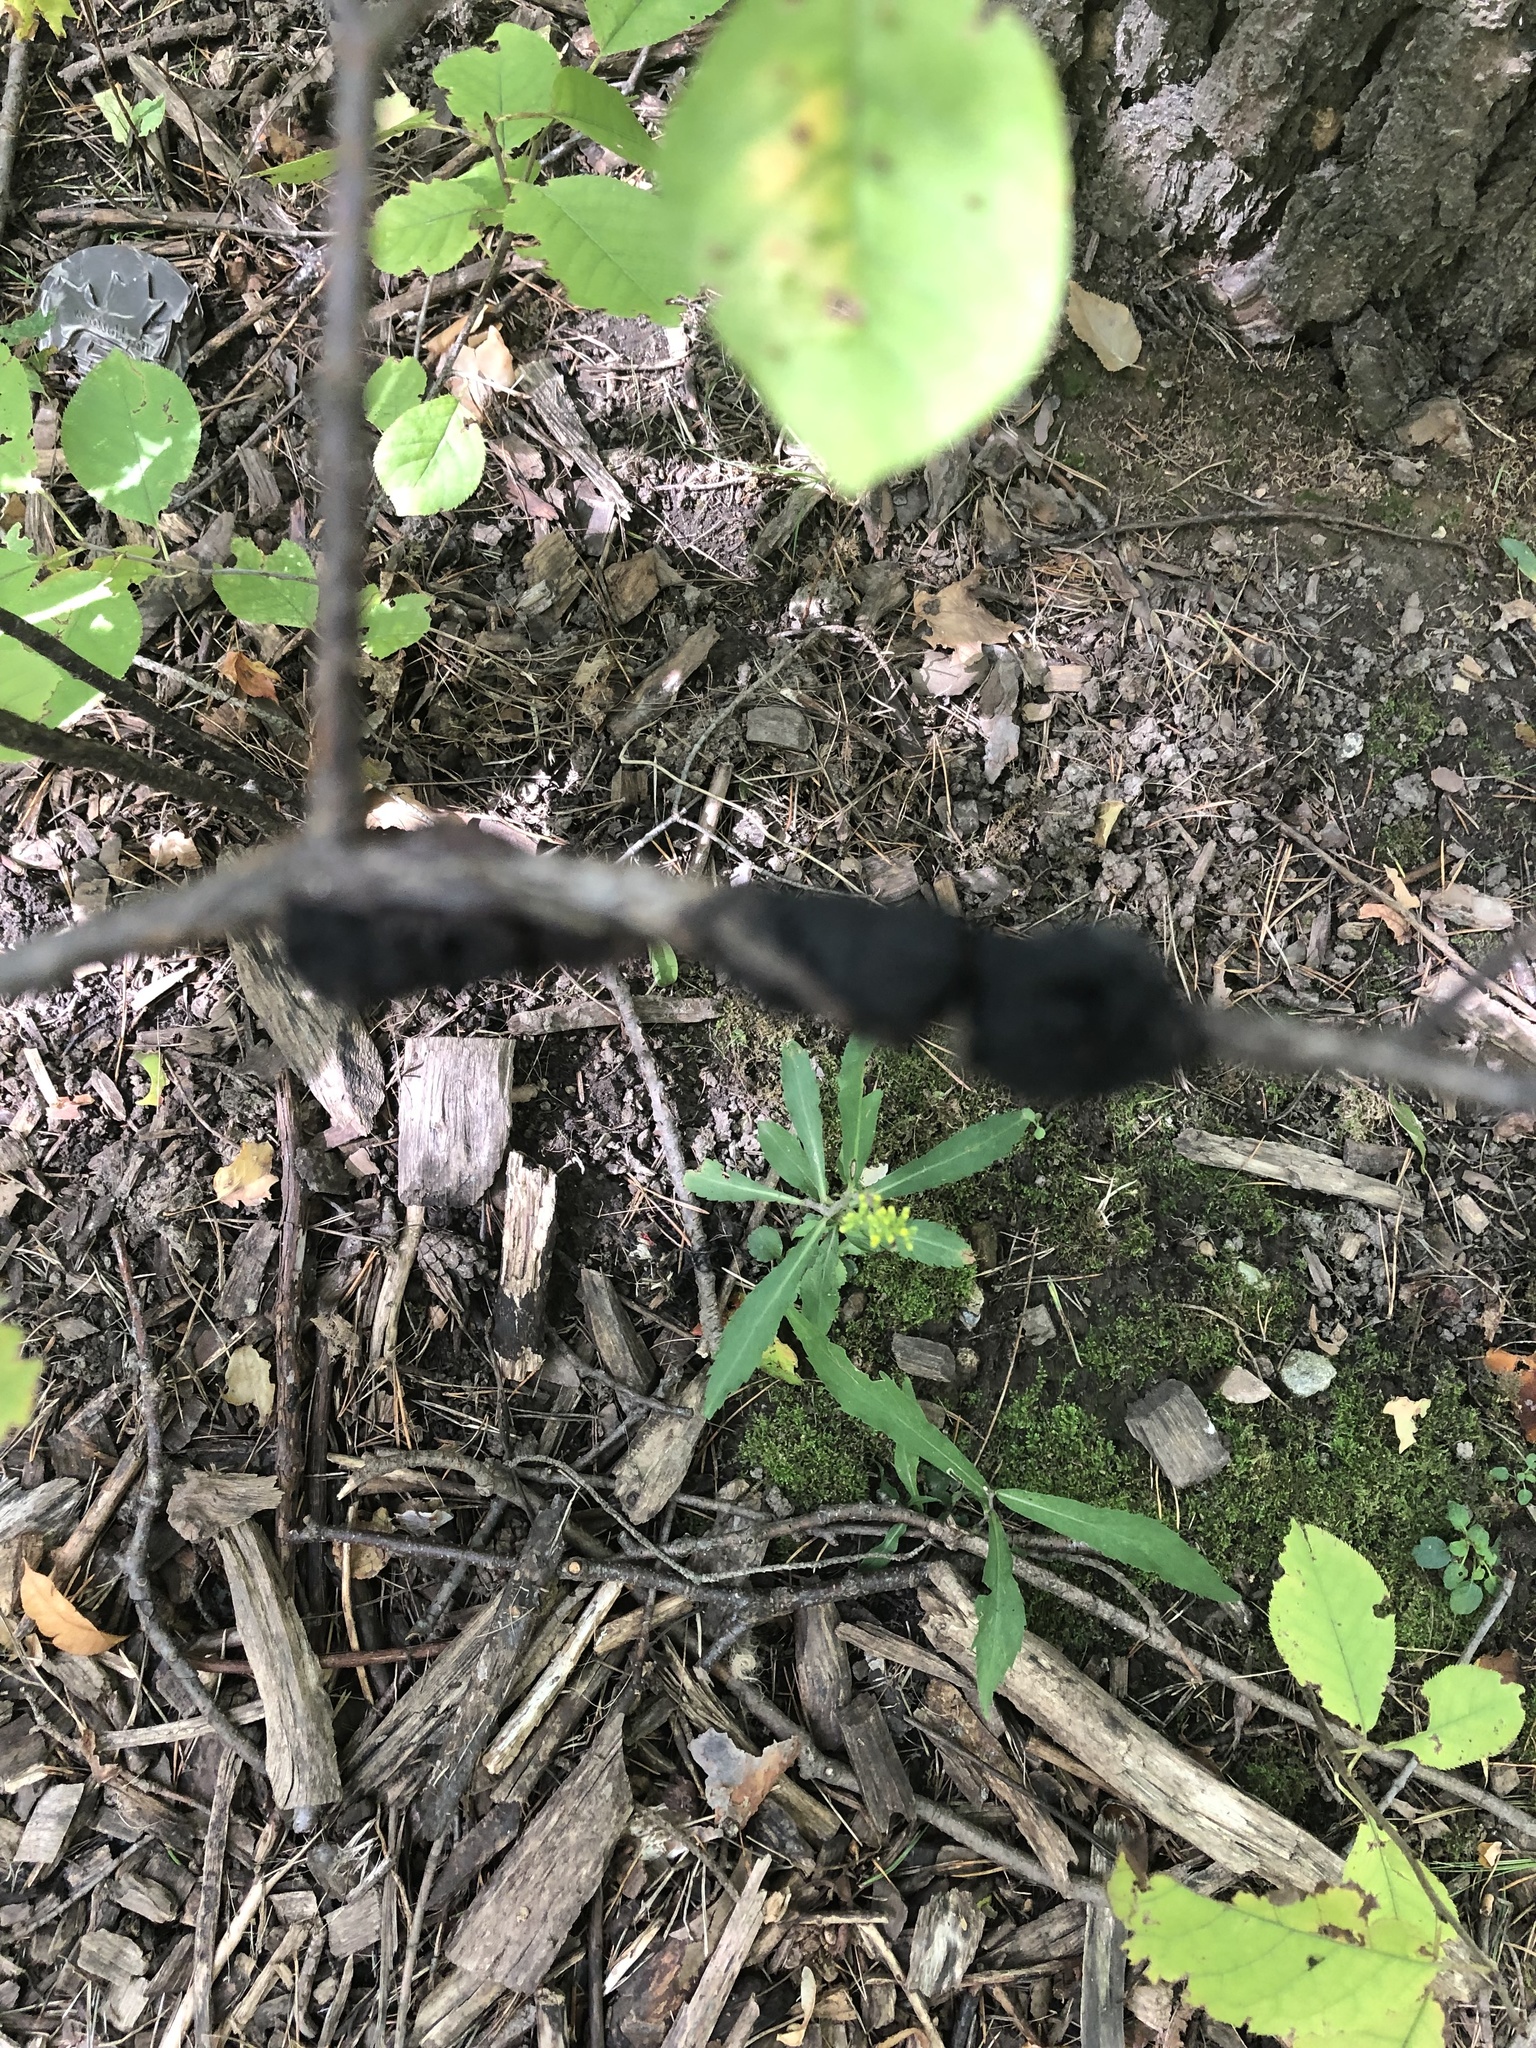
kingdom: Fungi
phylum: Ascomycota
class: Dothideomycetes
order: Venturiales
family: Venturiaceae
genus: Apiosporina
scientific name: Apiosporina morbosa
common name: Black knot
